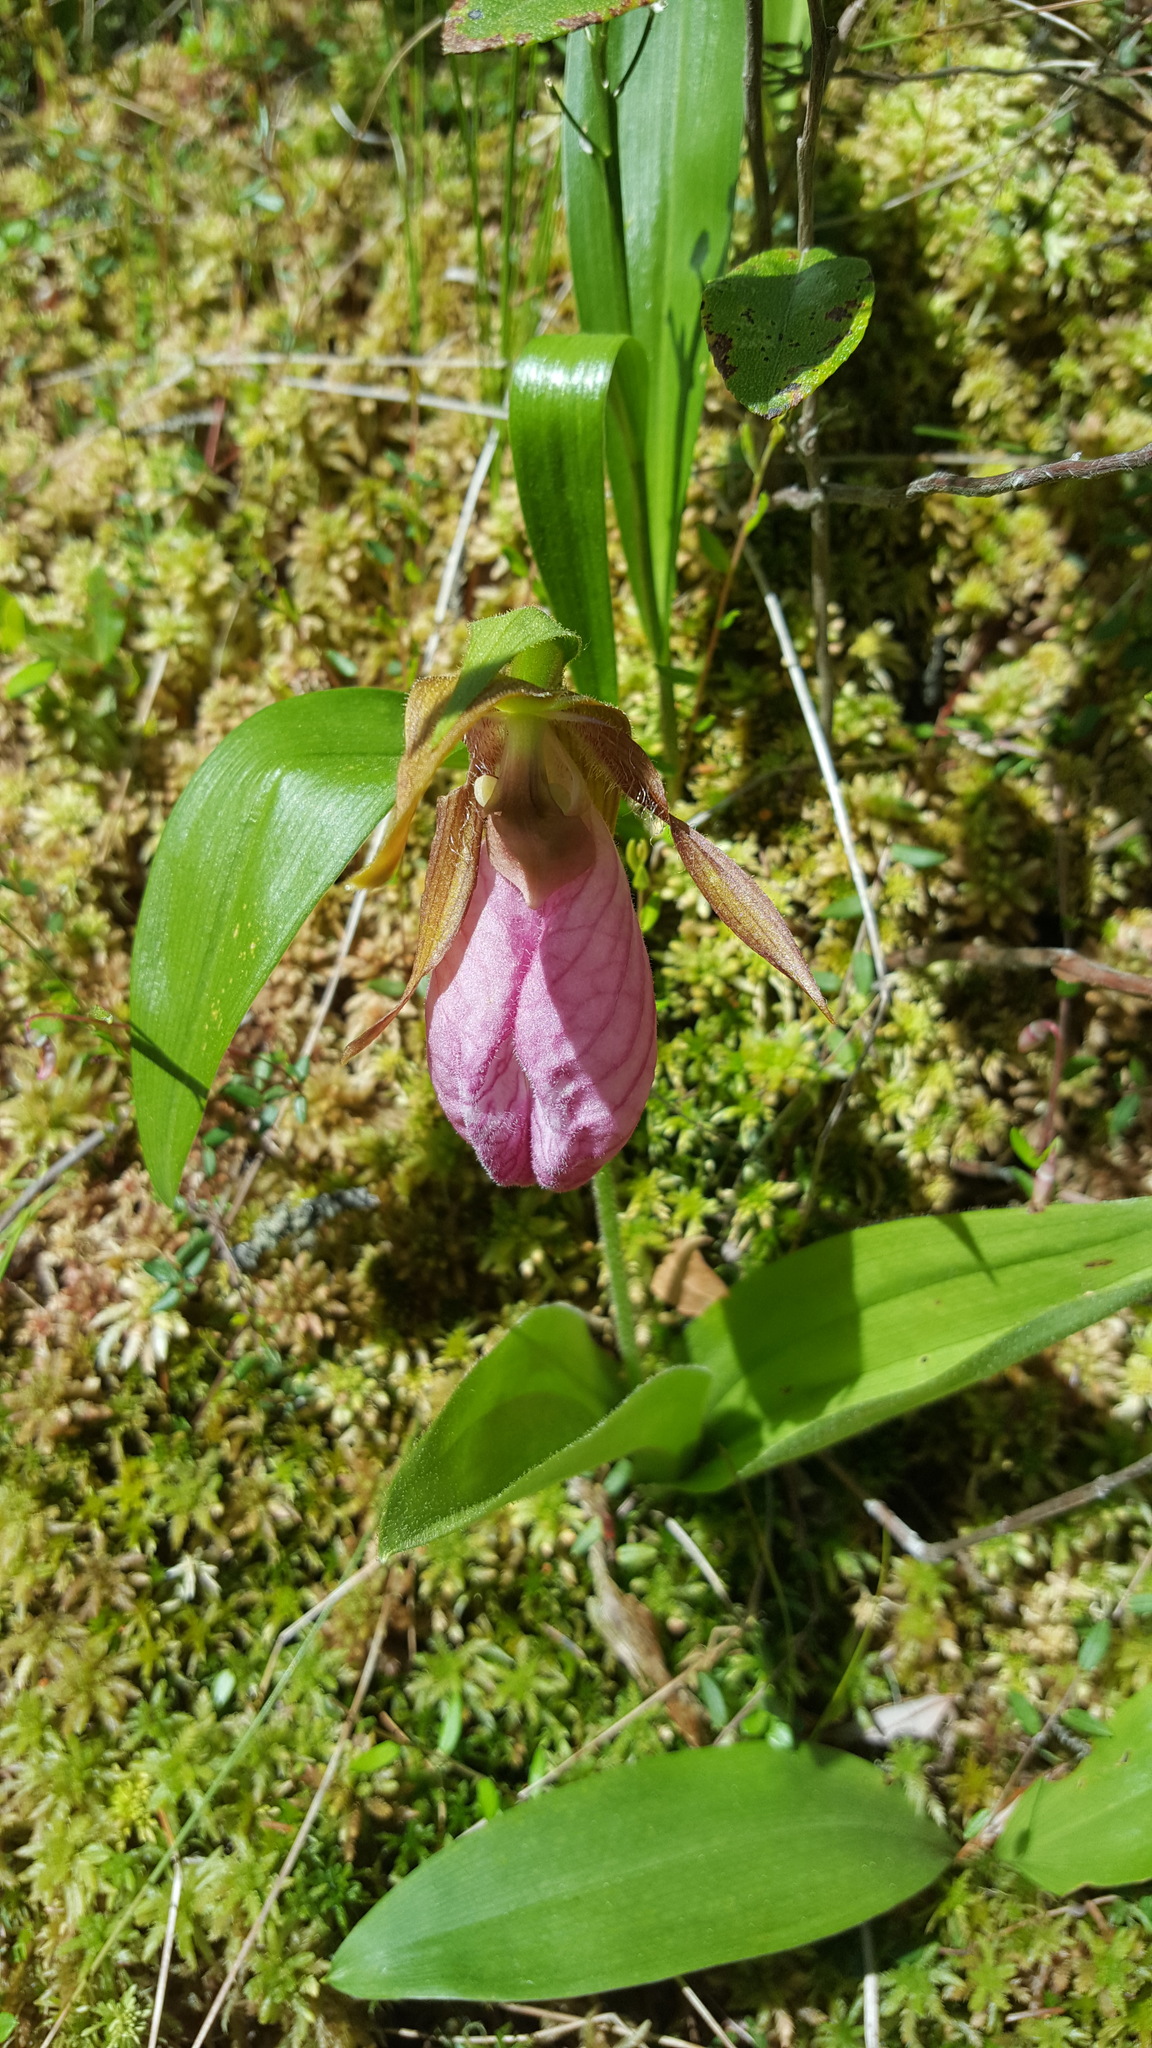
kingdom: Plantae
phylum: Tracheophyta
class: Liliopsida
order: Asparagales
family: Orchidaceae
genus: Cypripedium
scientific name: Cypripedium acaule
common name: Pink lady's-slipper
